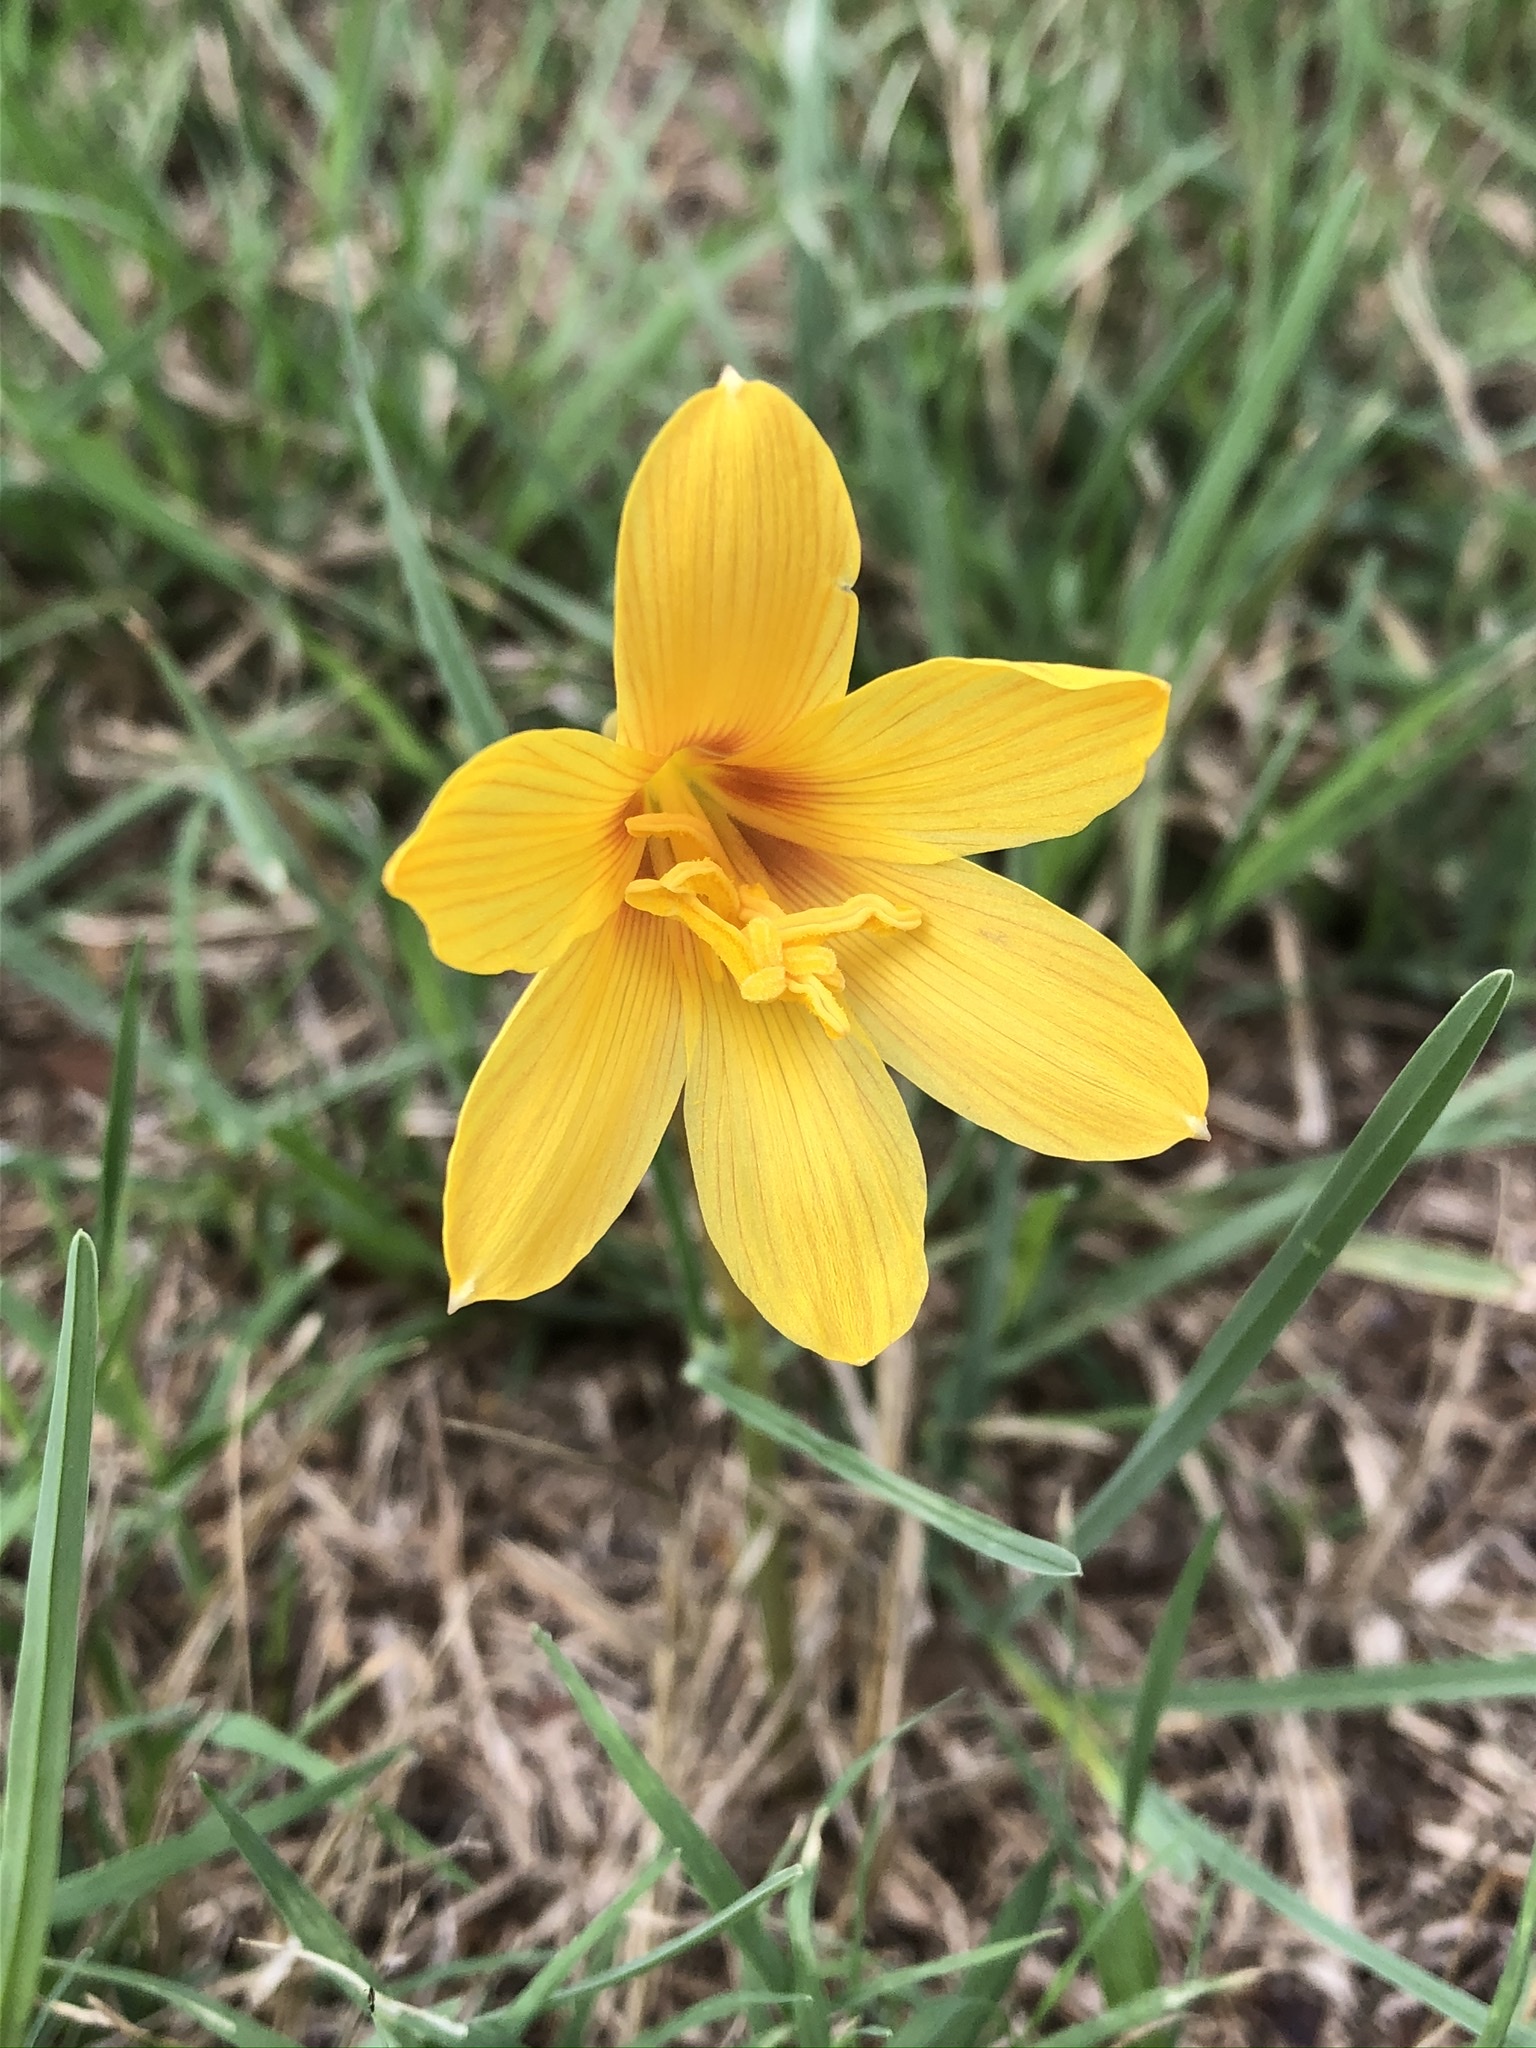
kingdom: Plantae
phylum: Tracheophyta
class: Liliopsida
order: Asparagales
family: Amaryllidaceae
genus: Zephyranthes
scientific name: Zephyranthes tubispatha
